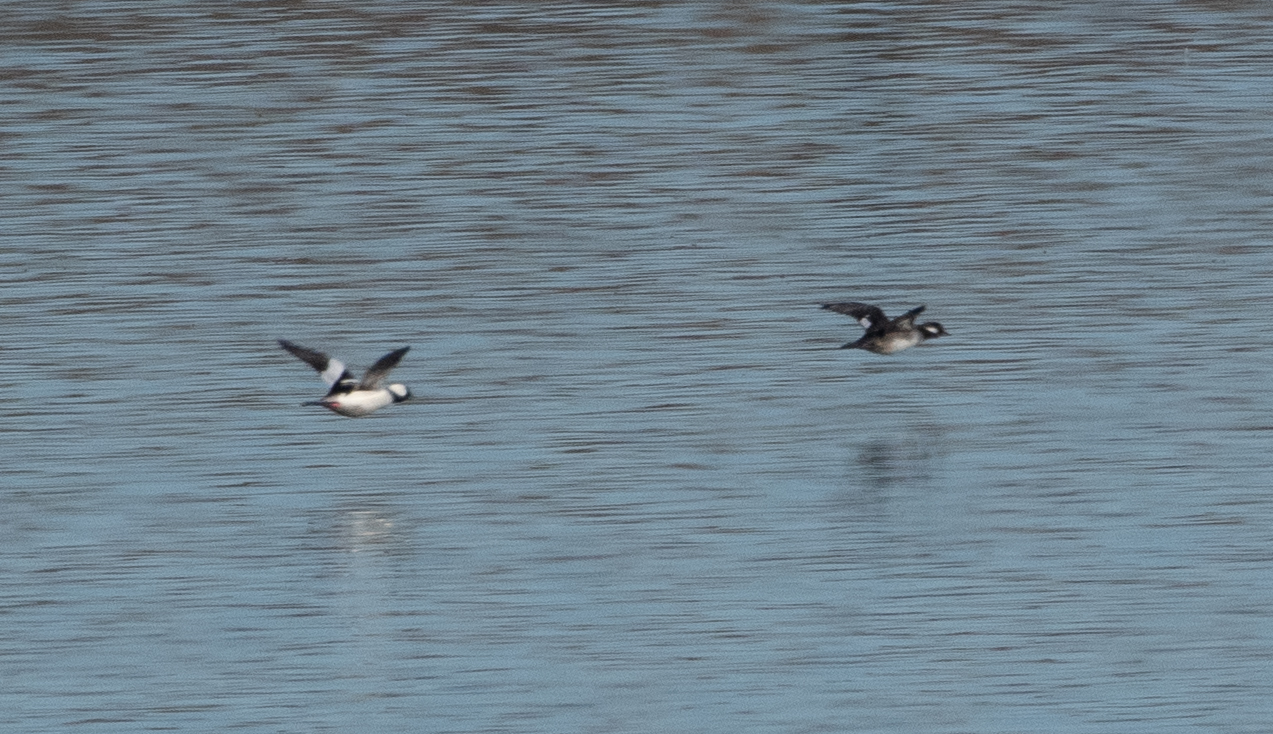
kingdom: Animalia
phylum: Chordata
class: Aves
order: Anseriformes
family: Anatidae
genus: Bucephala
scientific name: Bucephala albeola
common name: Bufflehead
